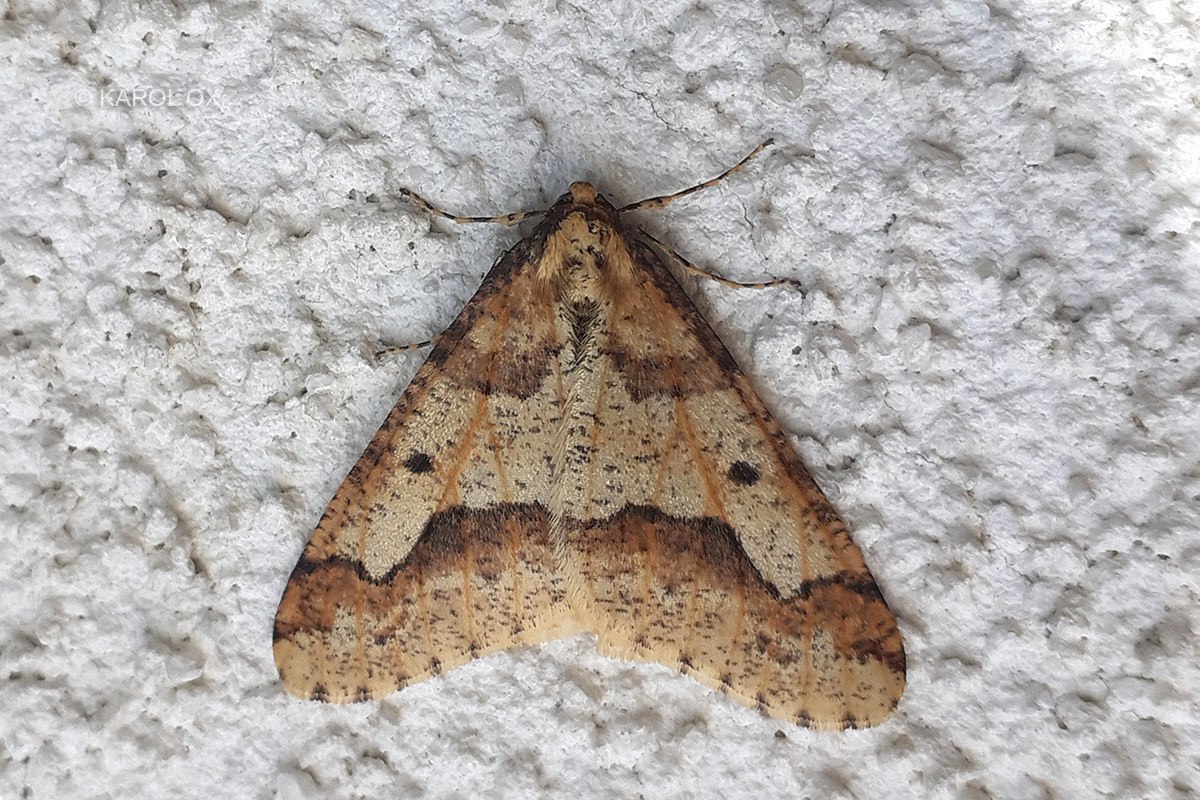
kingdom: Animalia
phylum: Arthropoda
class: Insecta
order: Lepidoptera
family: Geometridae
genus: Erannis
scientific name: Erannis defoliaria
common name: Mottled umber
